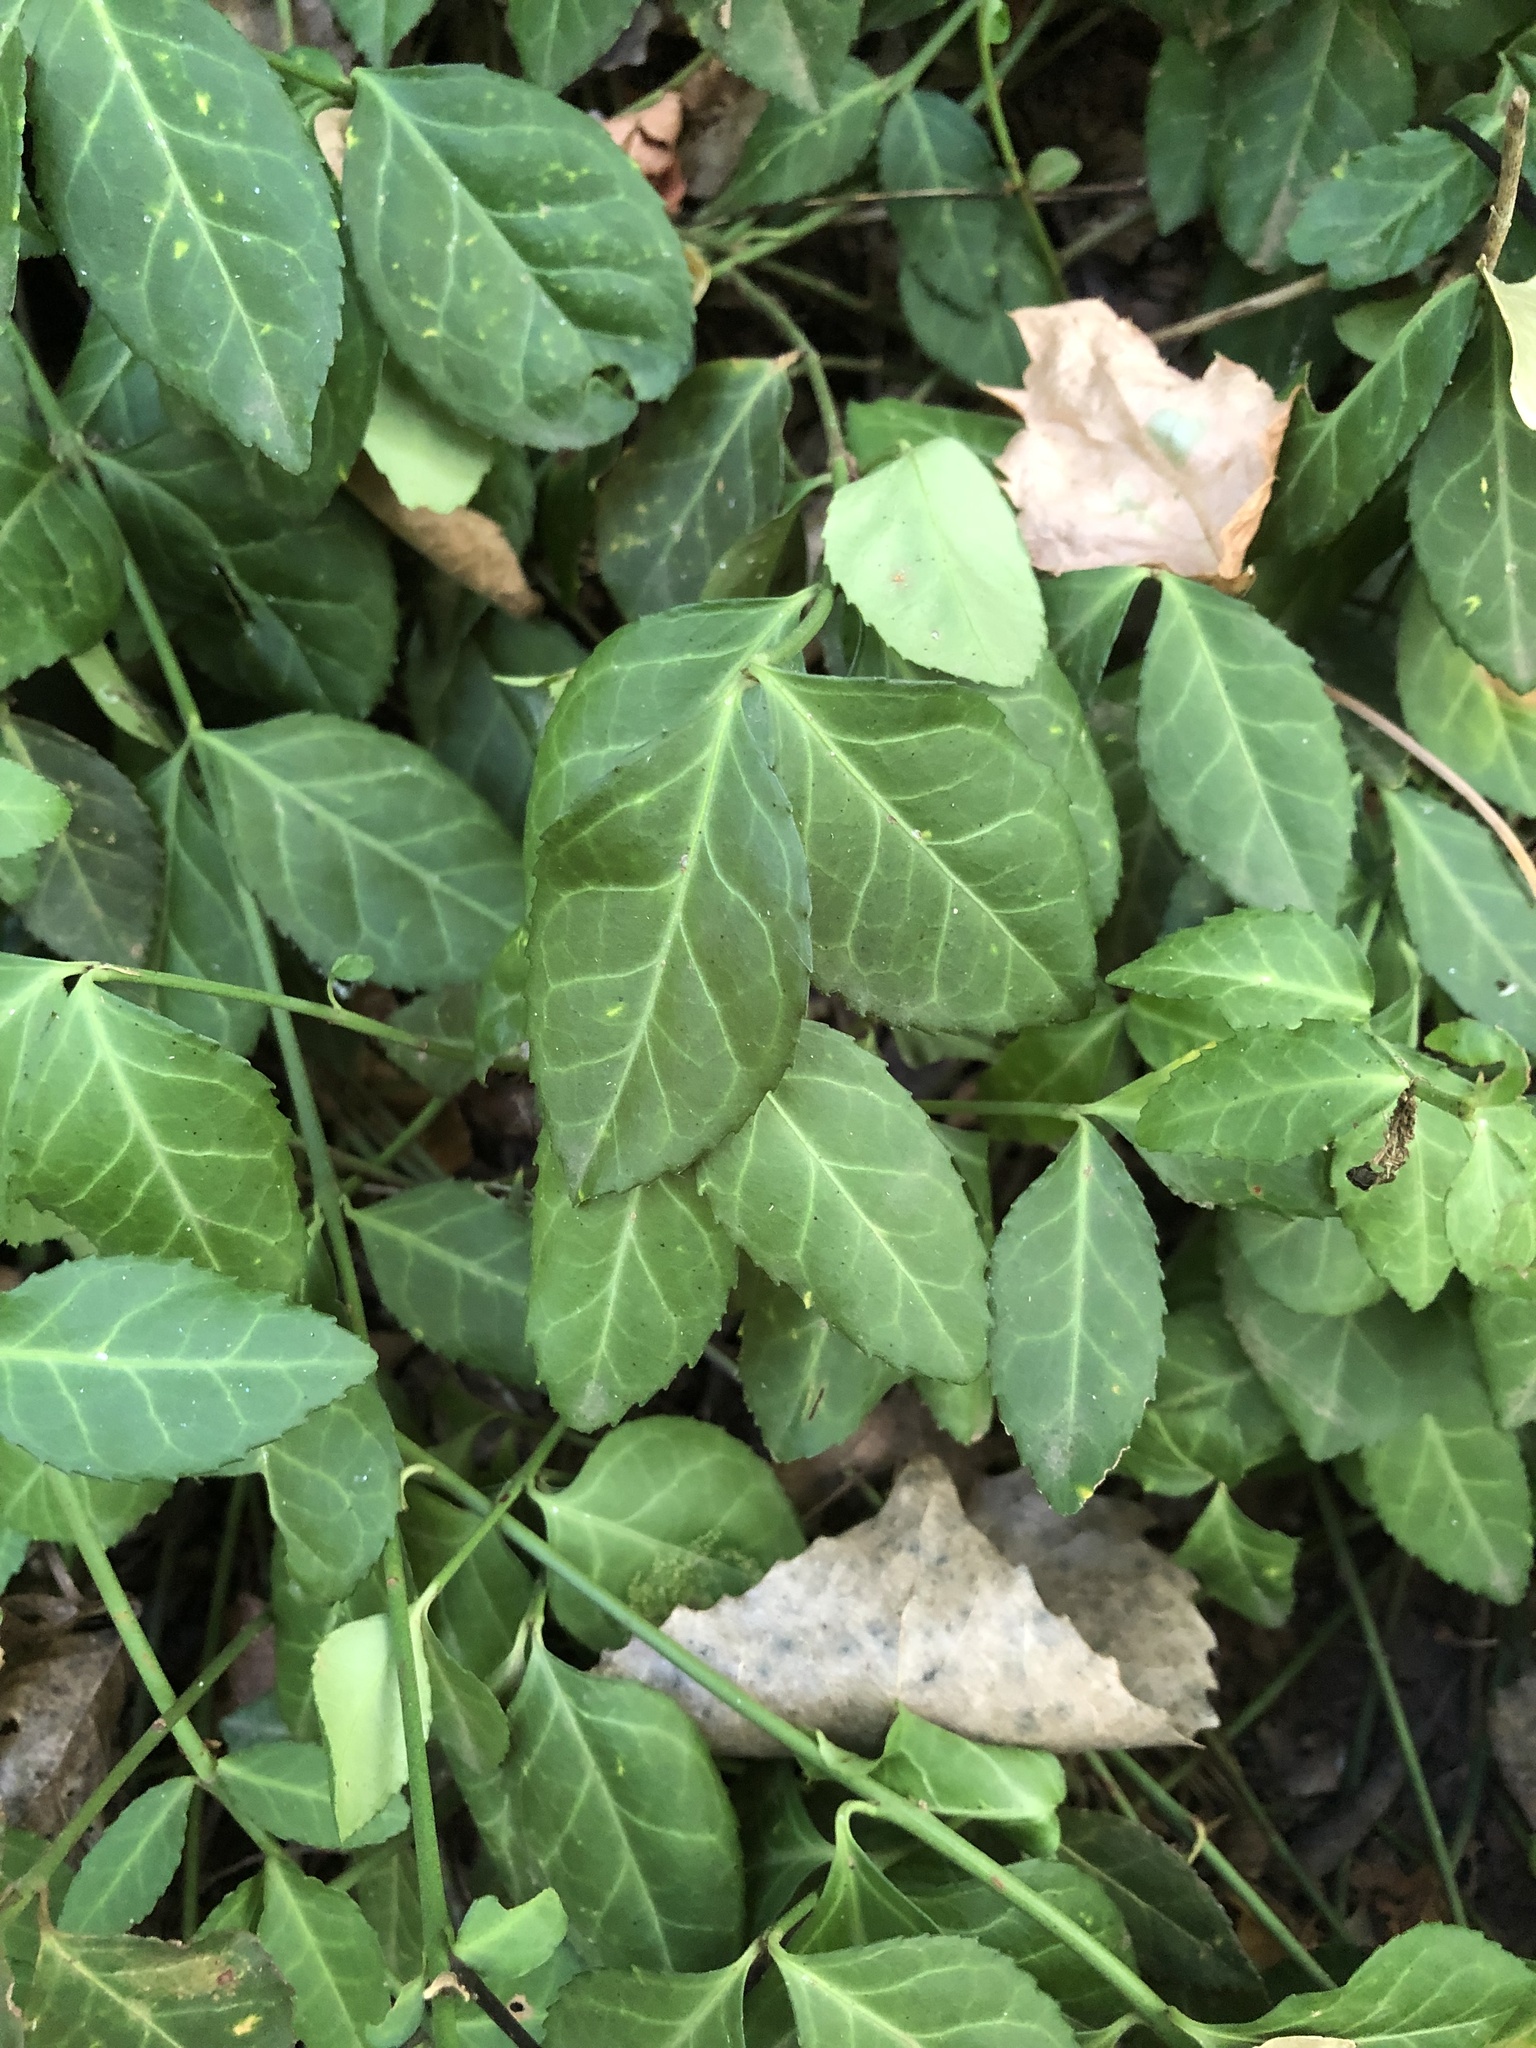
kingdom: Plantae
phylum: Tracheophyta
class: Magnoliopsida
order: Celastrales
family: Celastraceae
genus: Euonymus
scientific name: Euonymus fortunei
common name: Climbing euonymus
